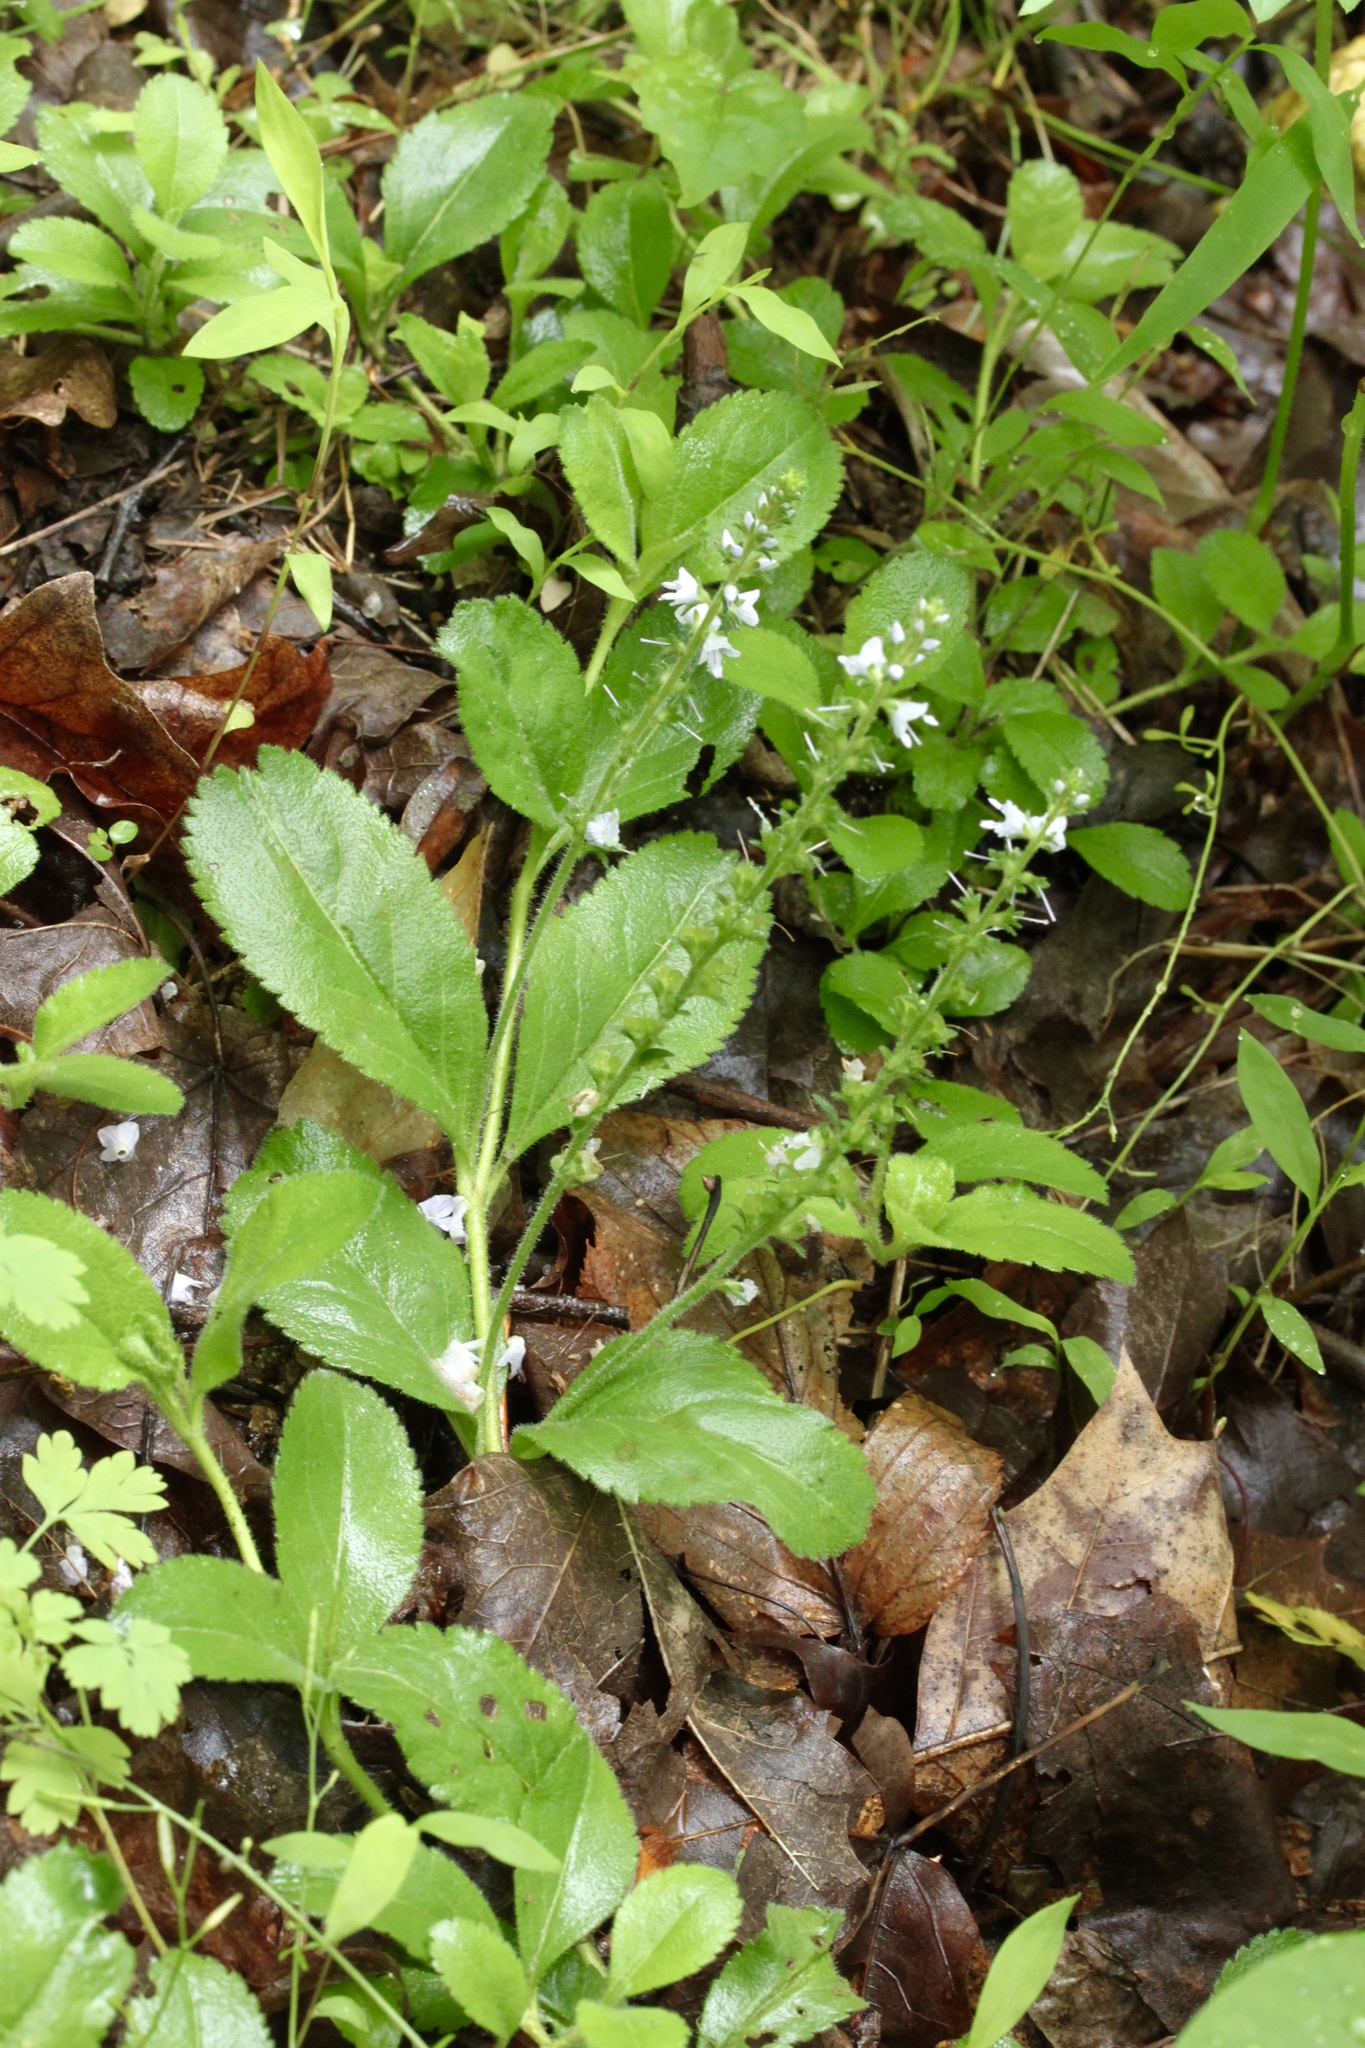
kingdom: Plantae
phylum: Tracheophyta
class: Magnoliopsida
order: Lamiales
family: Plantaginaceae
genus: Veronica
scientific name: Veronica officinalis
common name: Common speedwell
